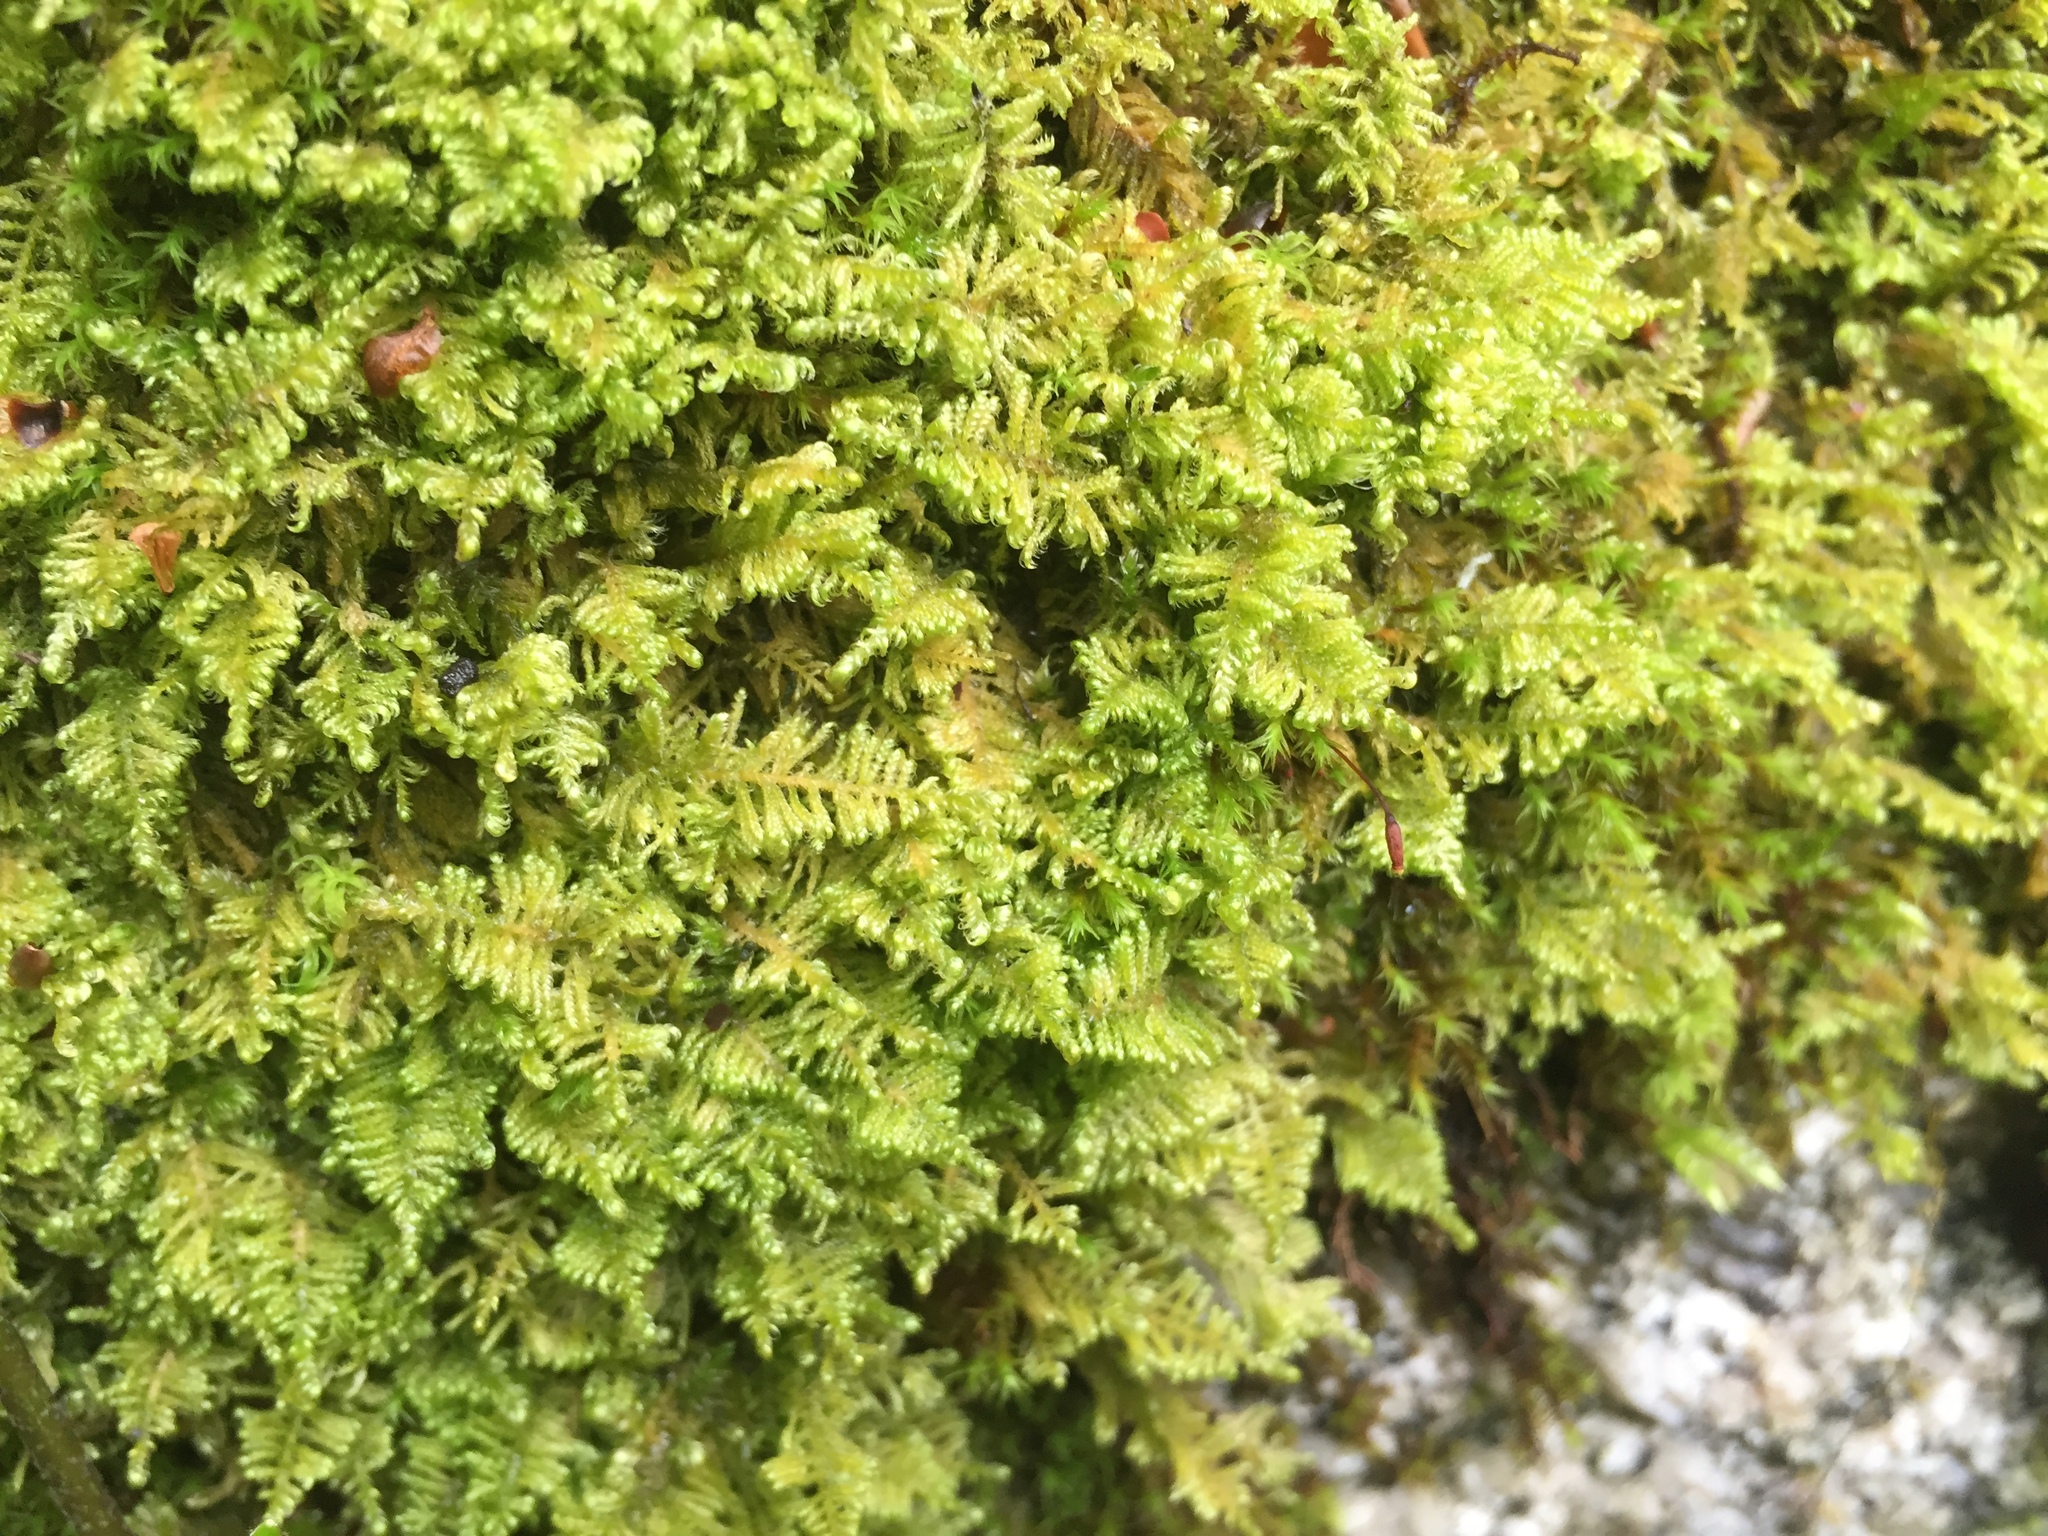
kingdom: Plantae
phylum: Bryophyta
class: Bryopsida
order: Hypnales
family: Myuriaceae
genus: Ctenidium
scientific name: Ctenidium molluscum
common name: Chalk comb-moss
